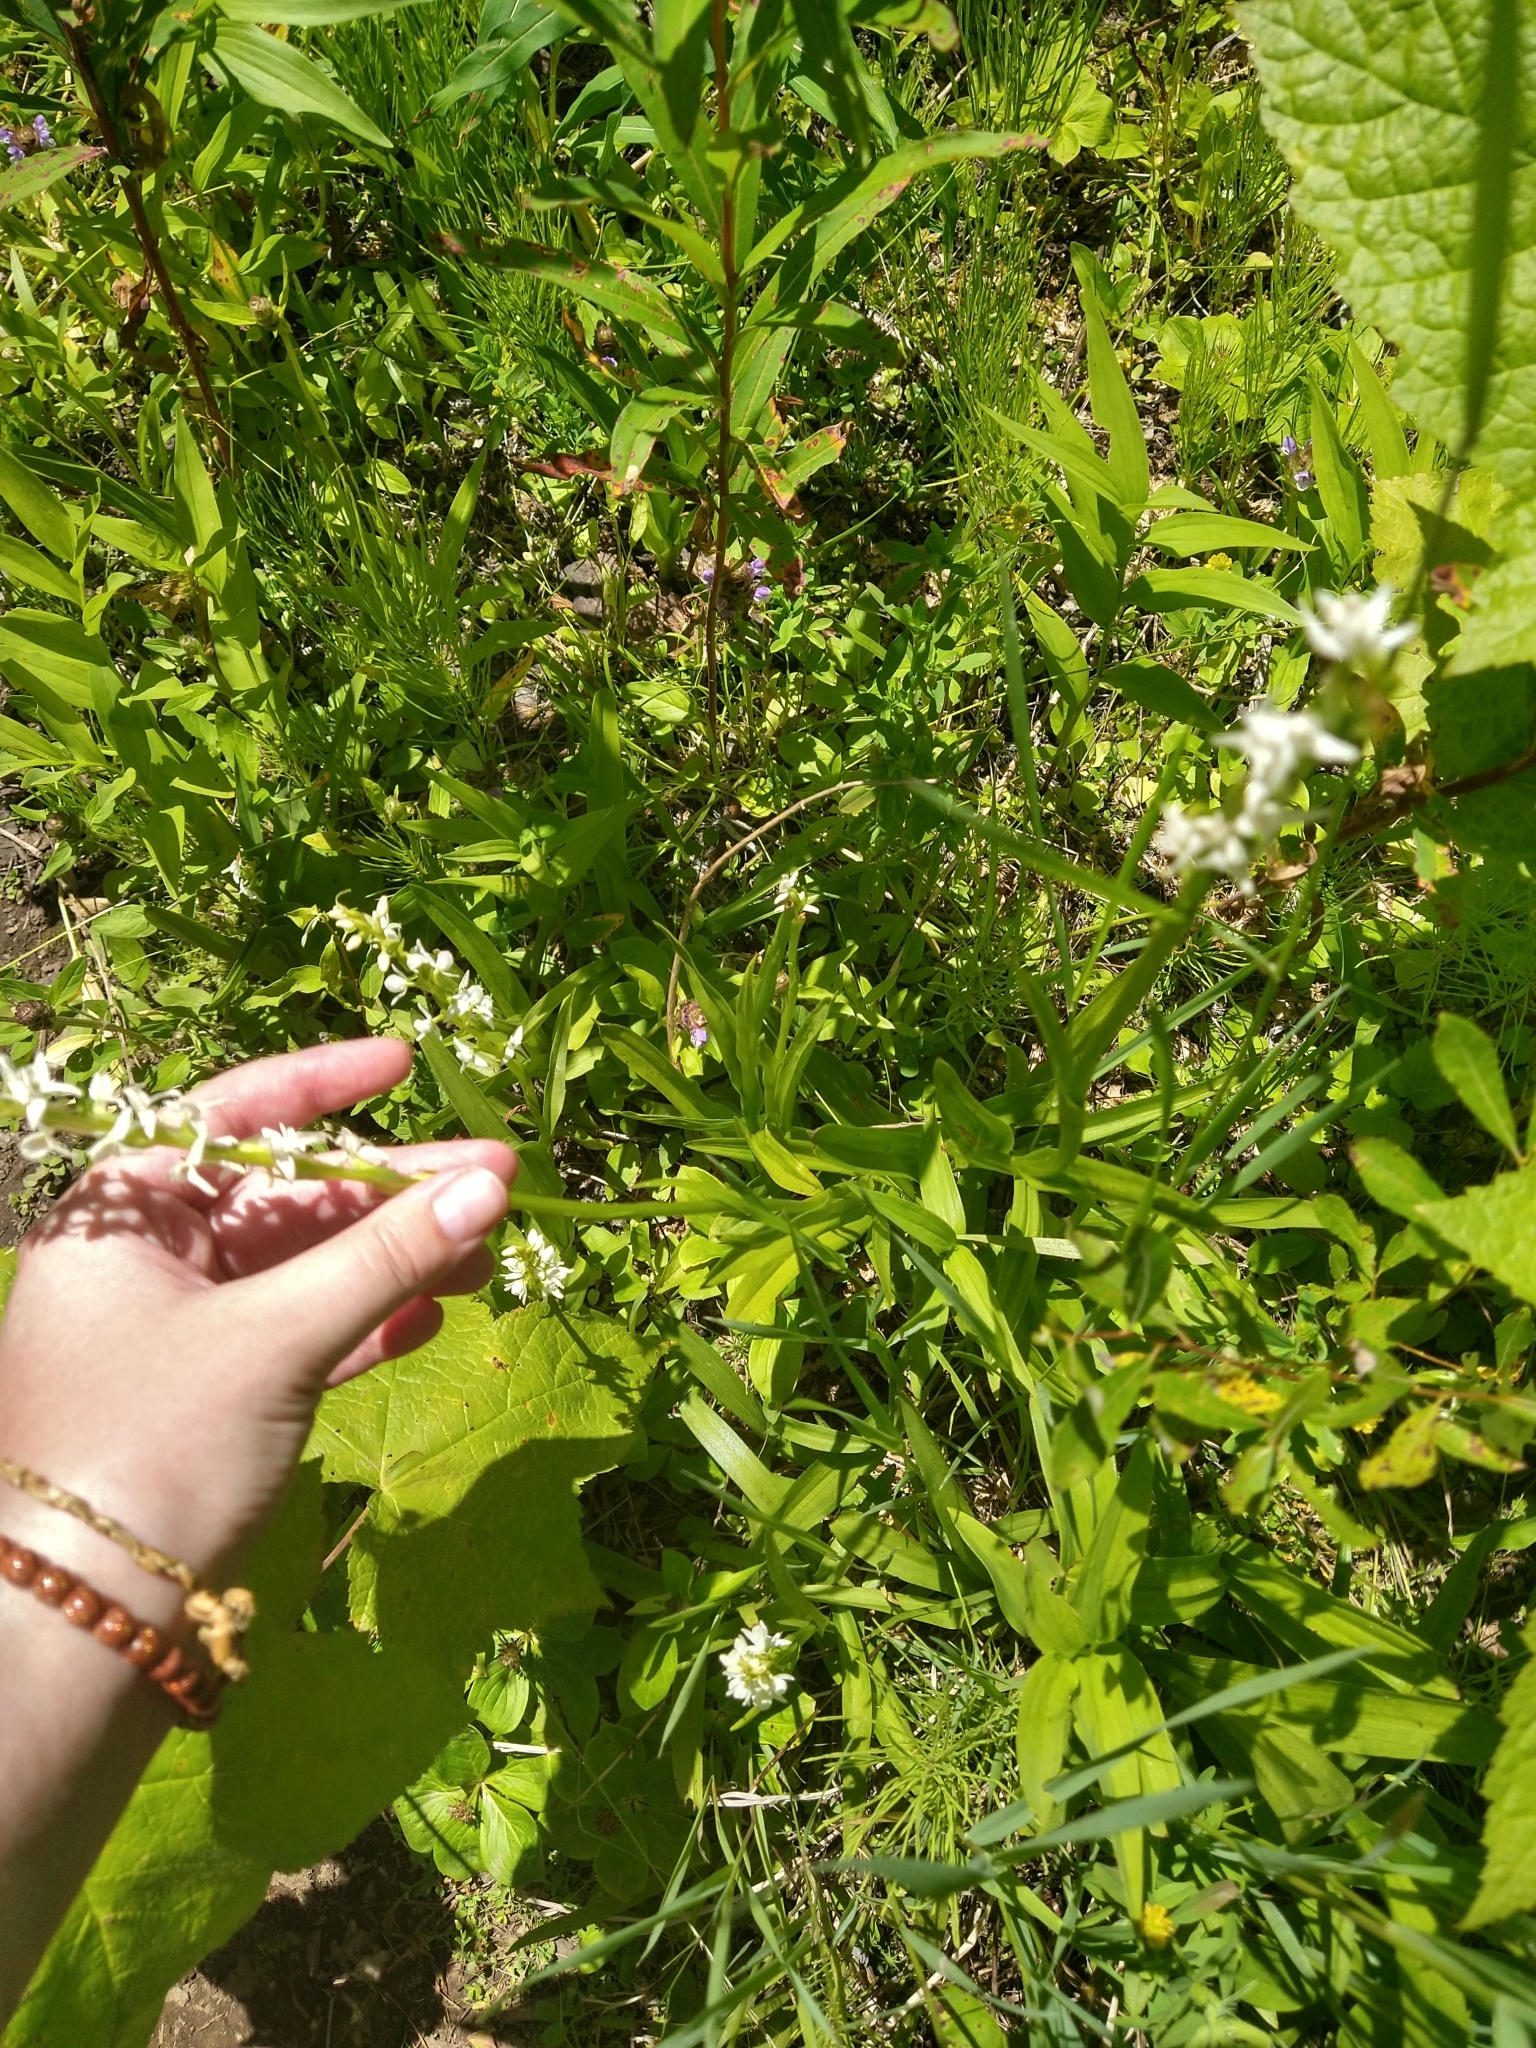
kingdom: Plantae
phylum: Tracheophyta
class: Liliopsida
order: Asparagales
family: Orchidaceae
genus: Platanthera
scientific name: Platanthera dilatata
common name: Bog candles
